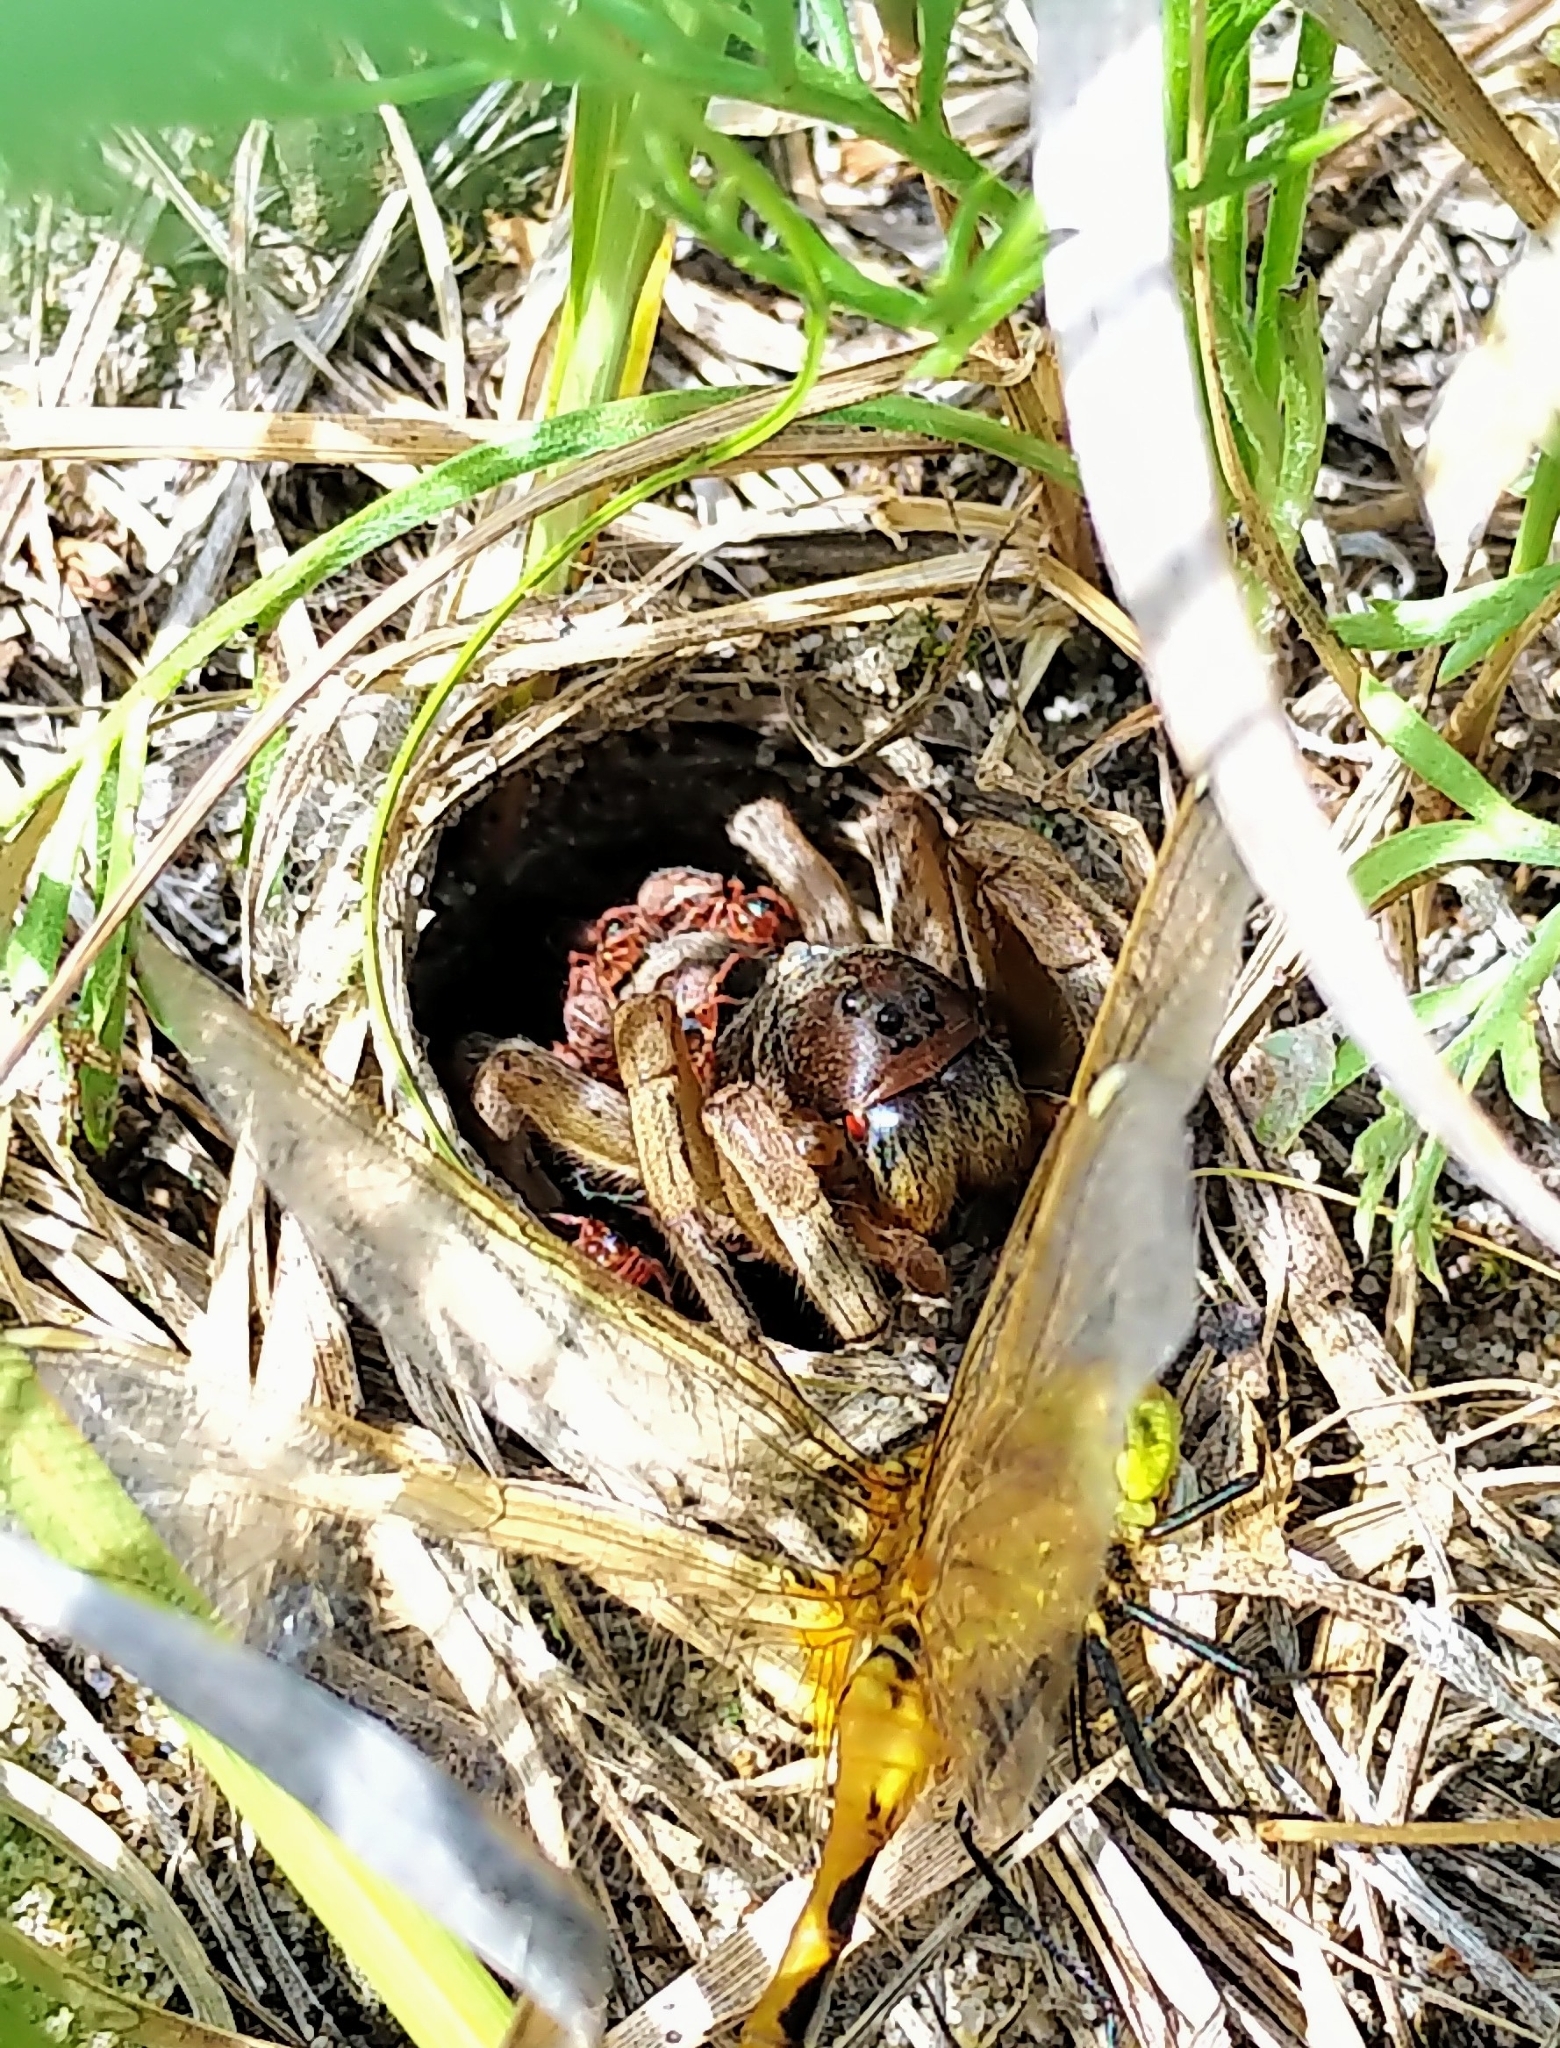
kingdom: Animalia
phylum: Arthropoda
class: Arachnida
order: Araneae
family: Lycosidae
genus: Geolycosa
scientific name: Geolycosa missouriensis
